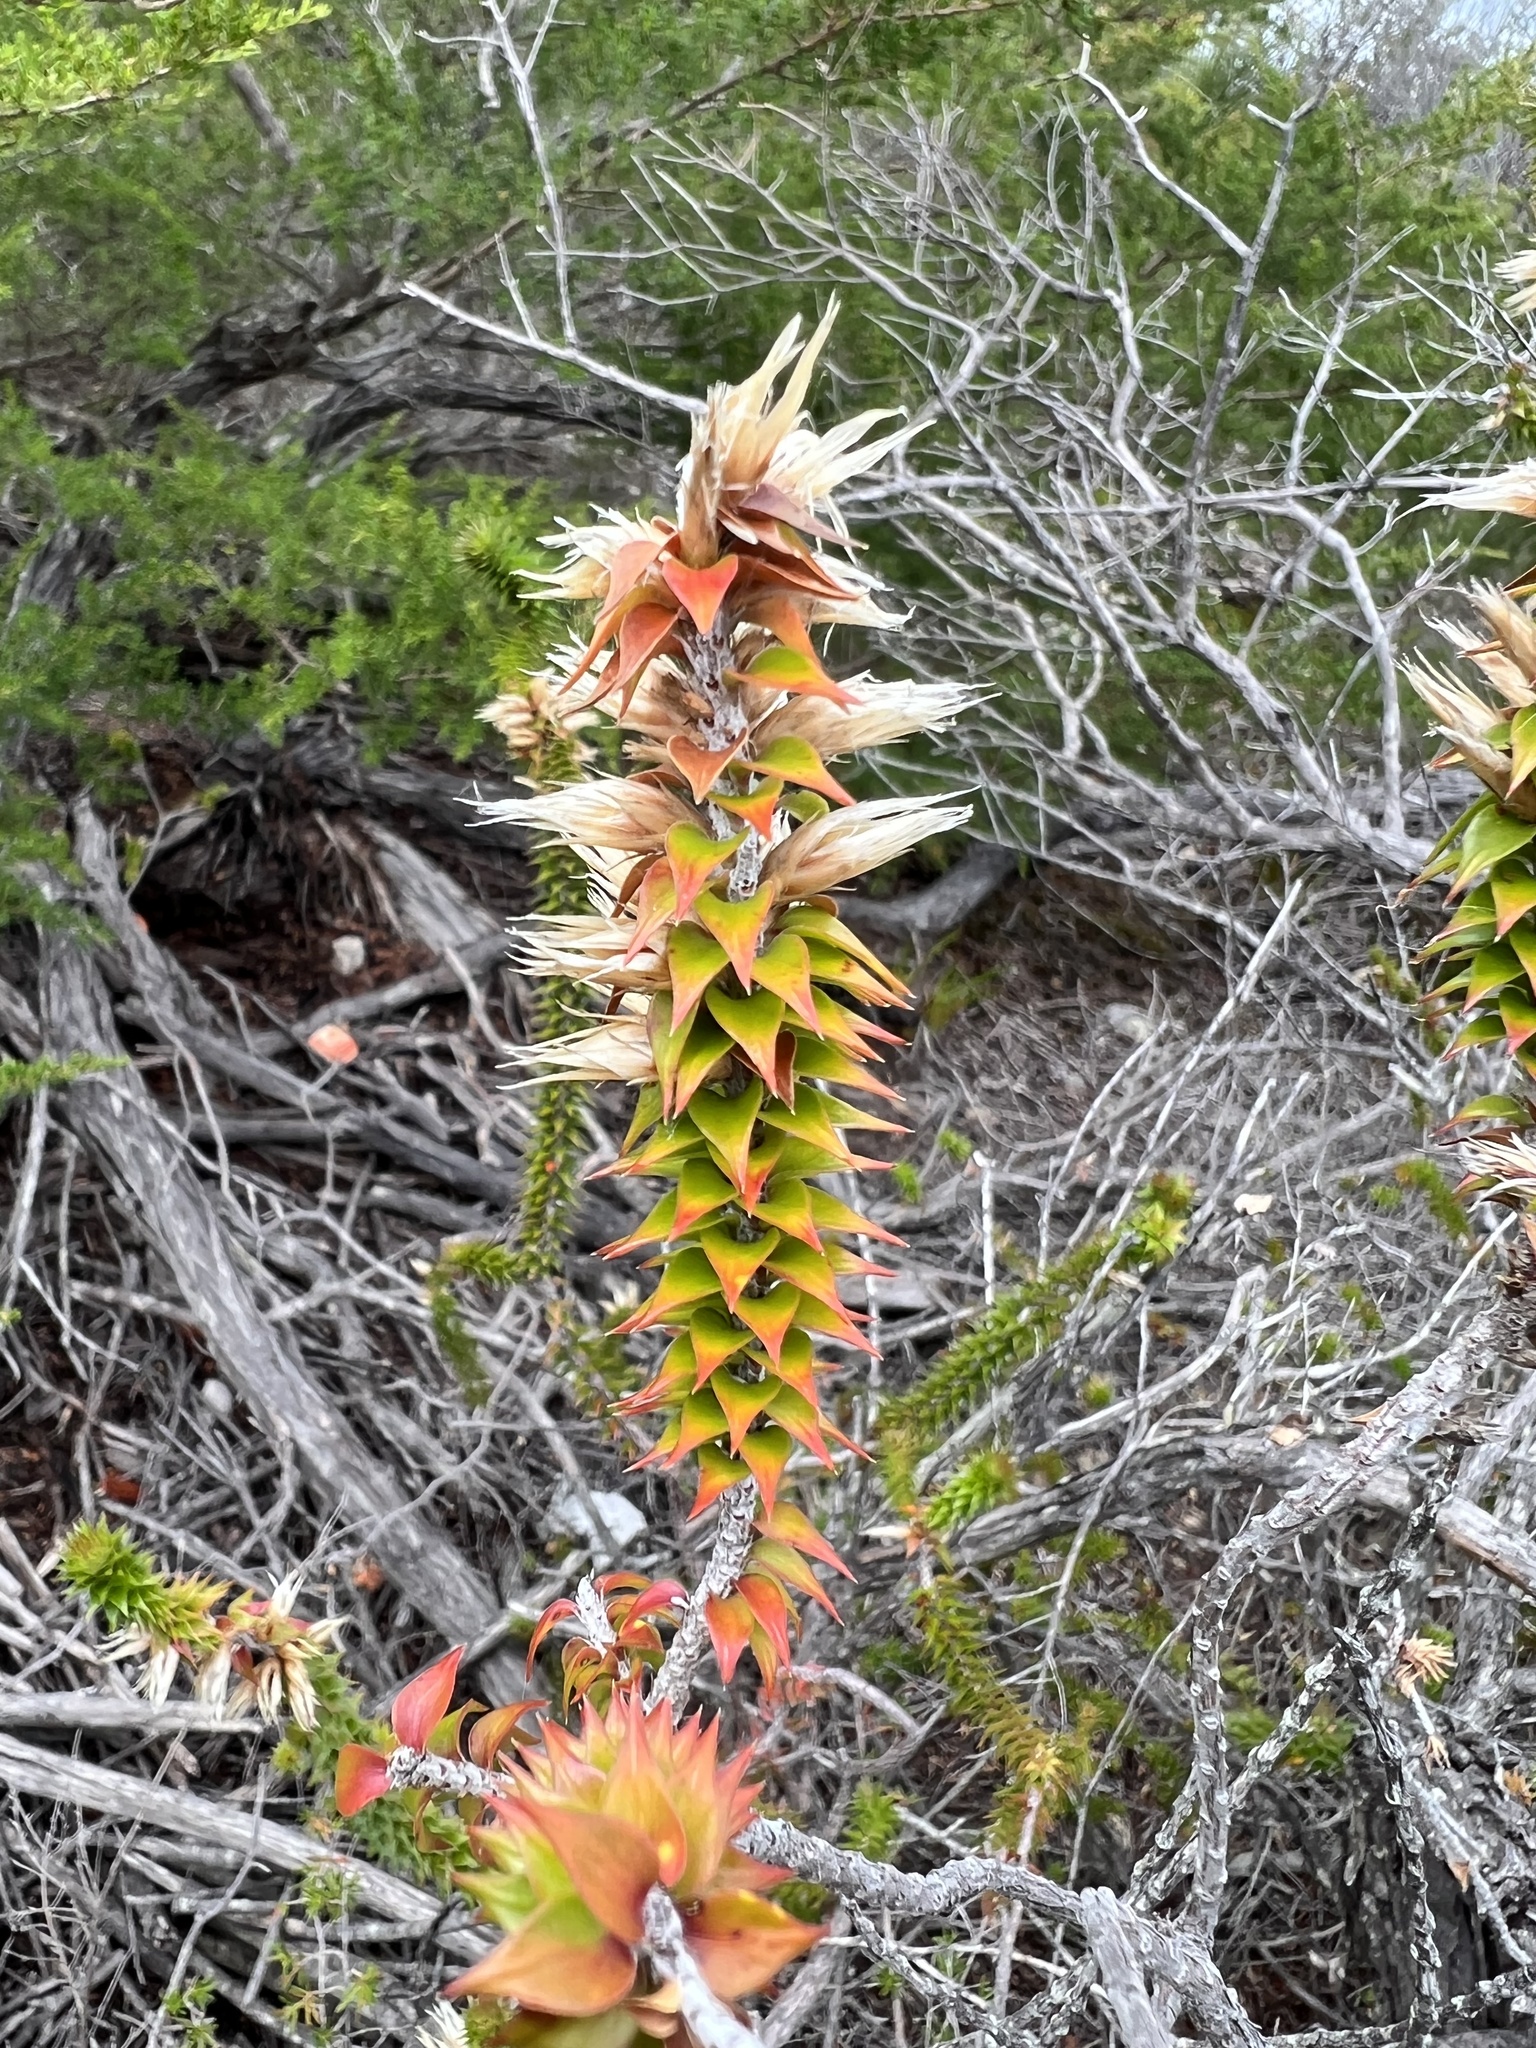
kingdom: Plantae
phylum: Tracheophyta
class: Magnoliopsida
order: Ericales
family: Ericaceae
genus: Woollsia
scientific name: Woollsia pungens
